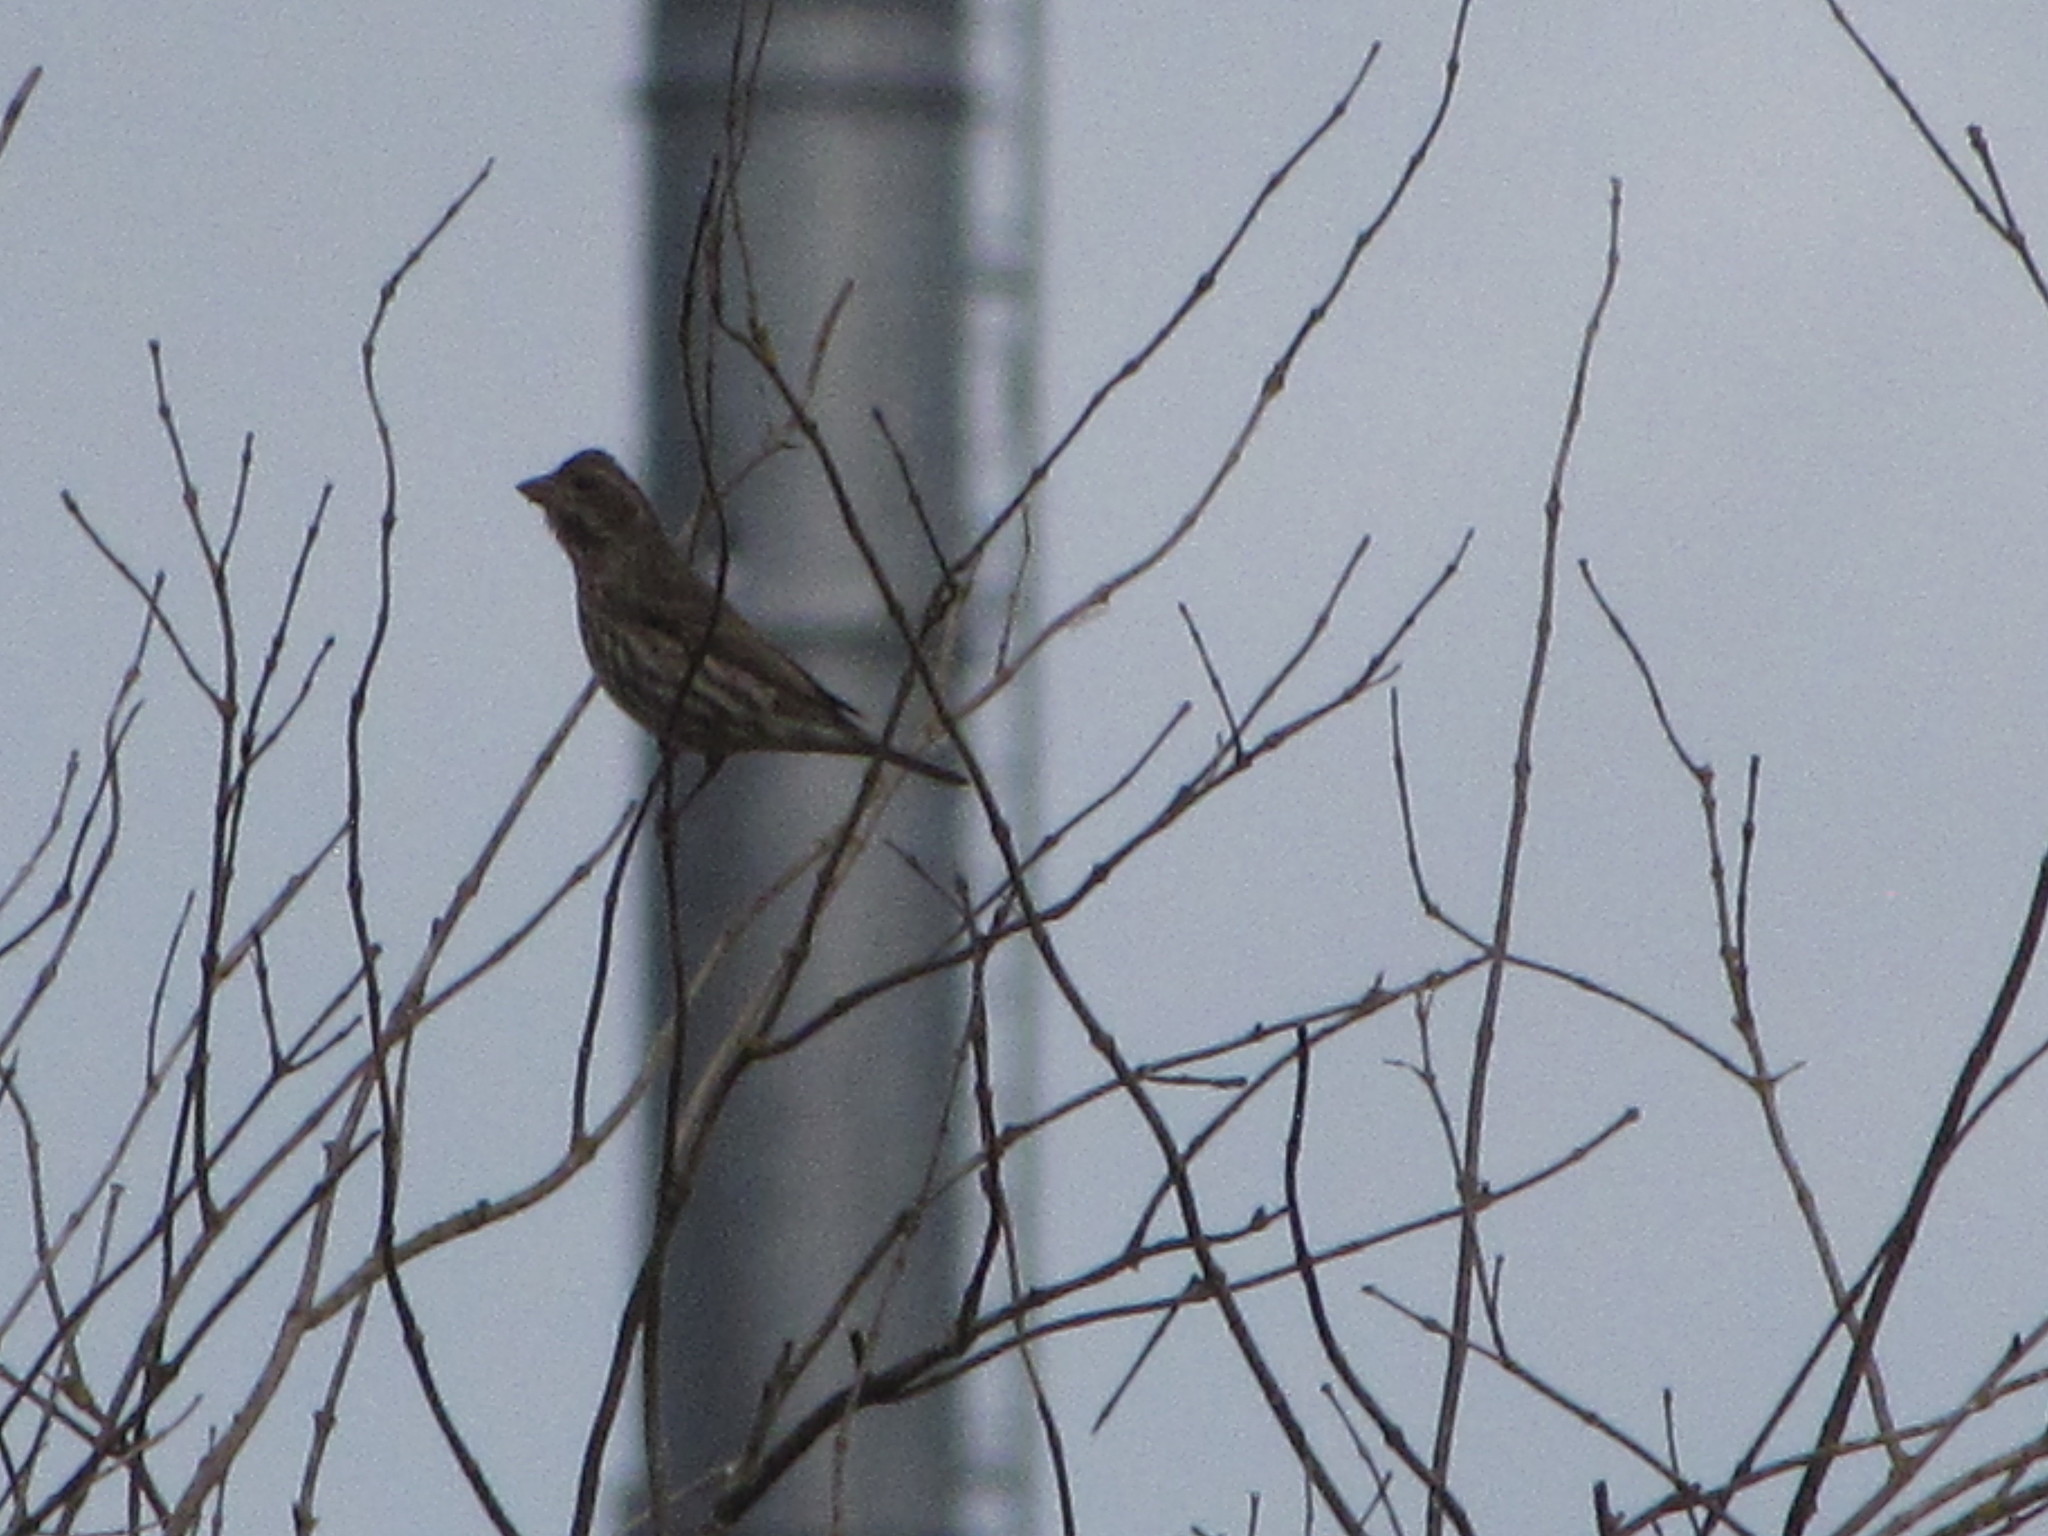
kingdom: Animalia
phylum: Chordata
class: Aves
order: Passeriformes
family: Fringillidae
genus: Haemorhous
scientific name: Haemorhous purpureus
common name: Purple finch
